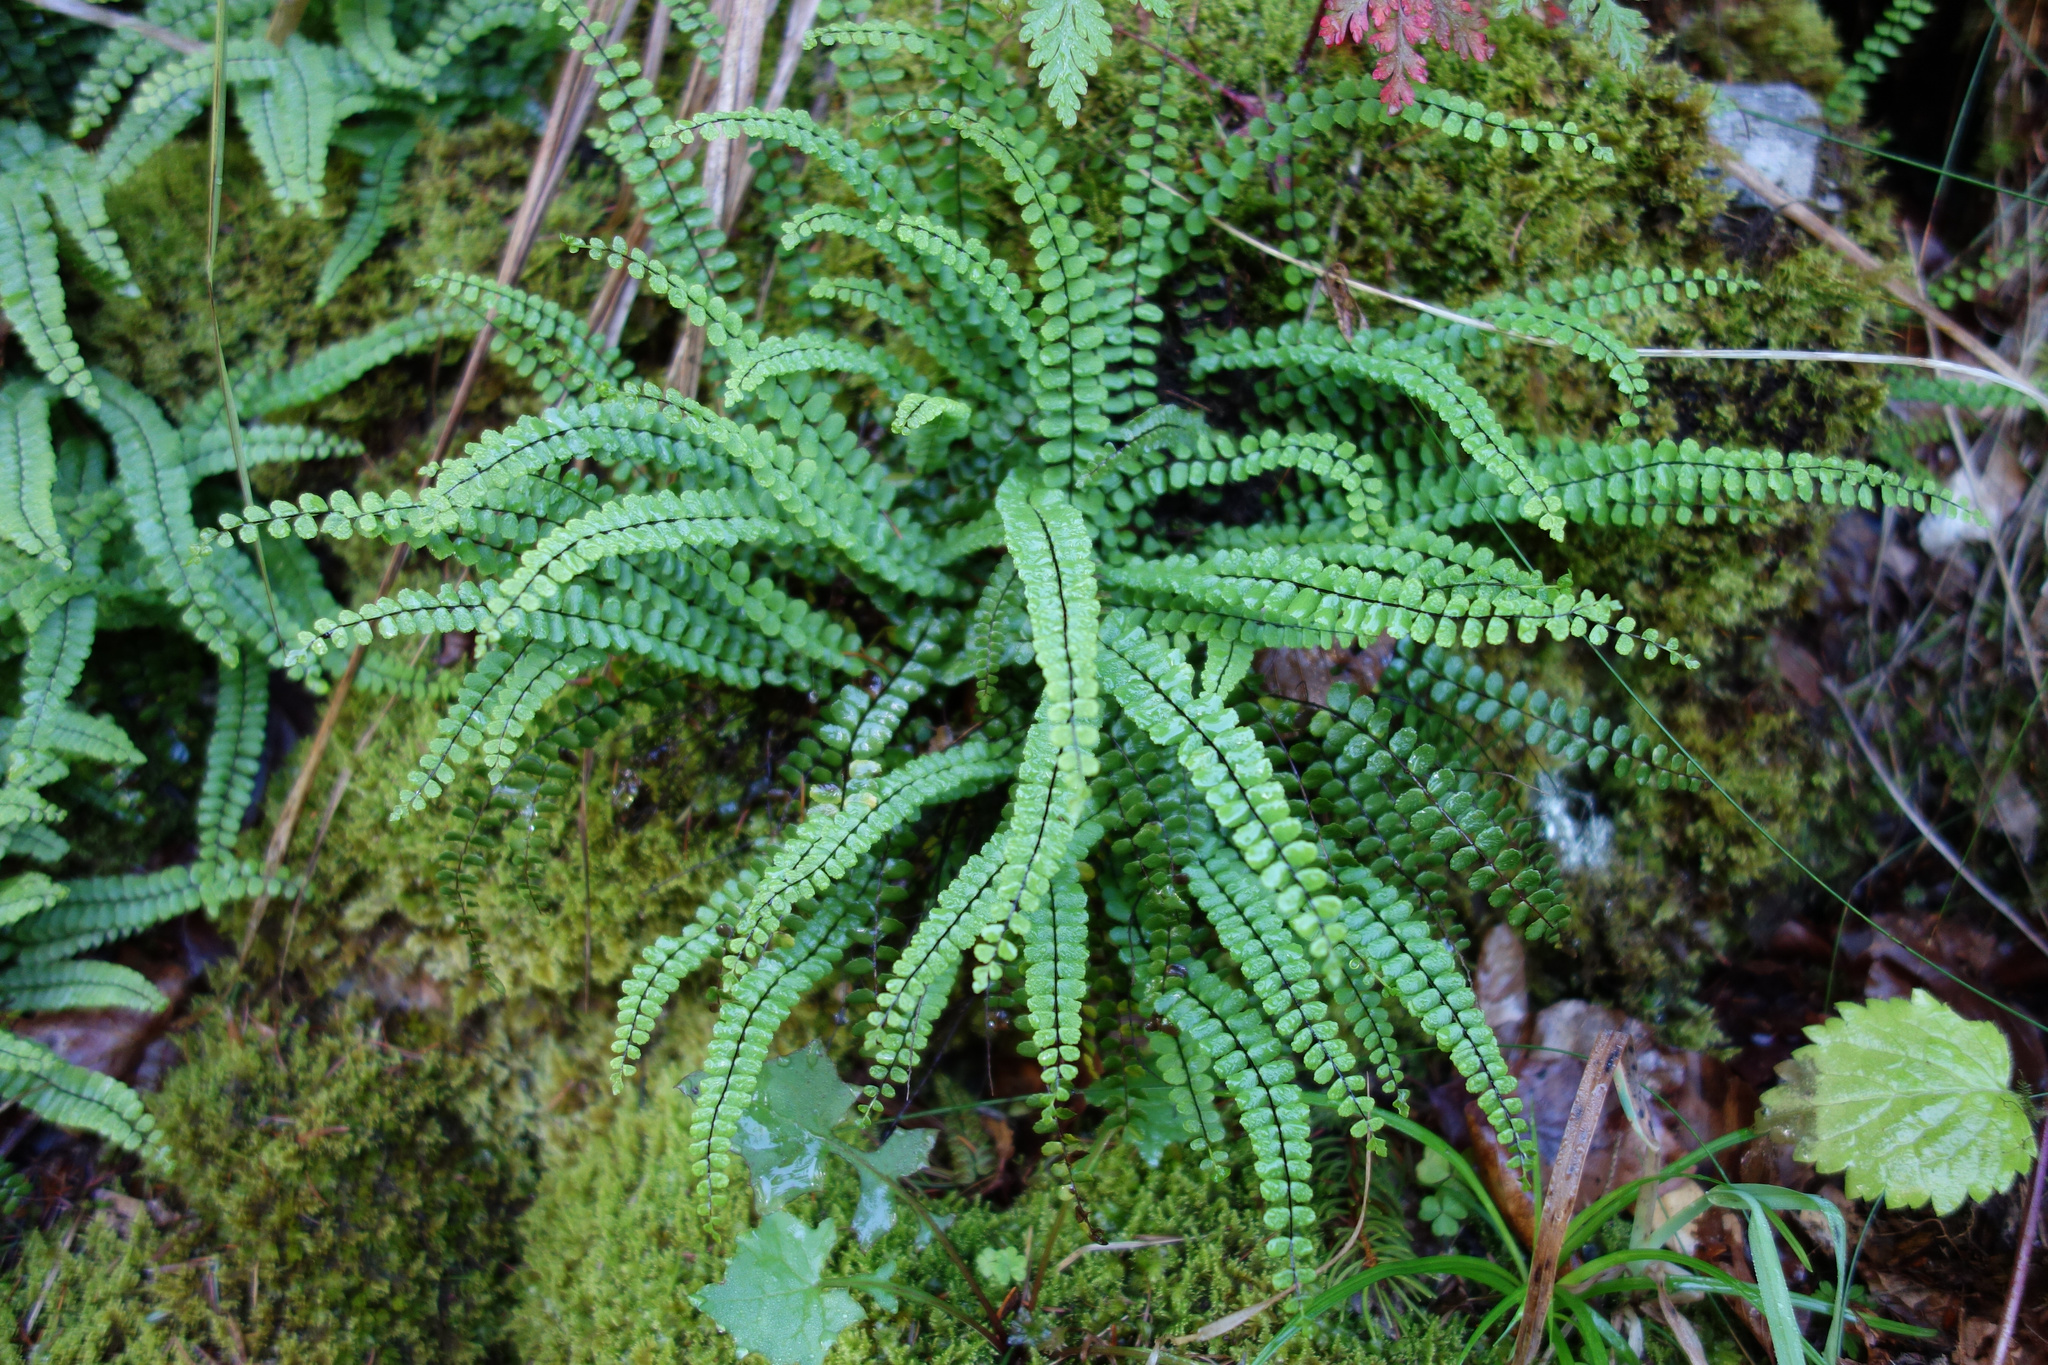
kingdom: Plantae
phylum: Tracheophyta
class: Polypodiopsida
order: Polypodiales
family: Aspleniaceae
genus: Asplenium
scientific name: Asplenium trichomanes
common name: Maidenhair spleenwort
